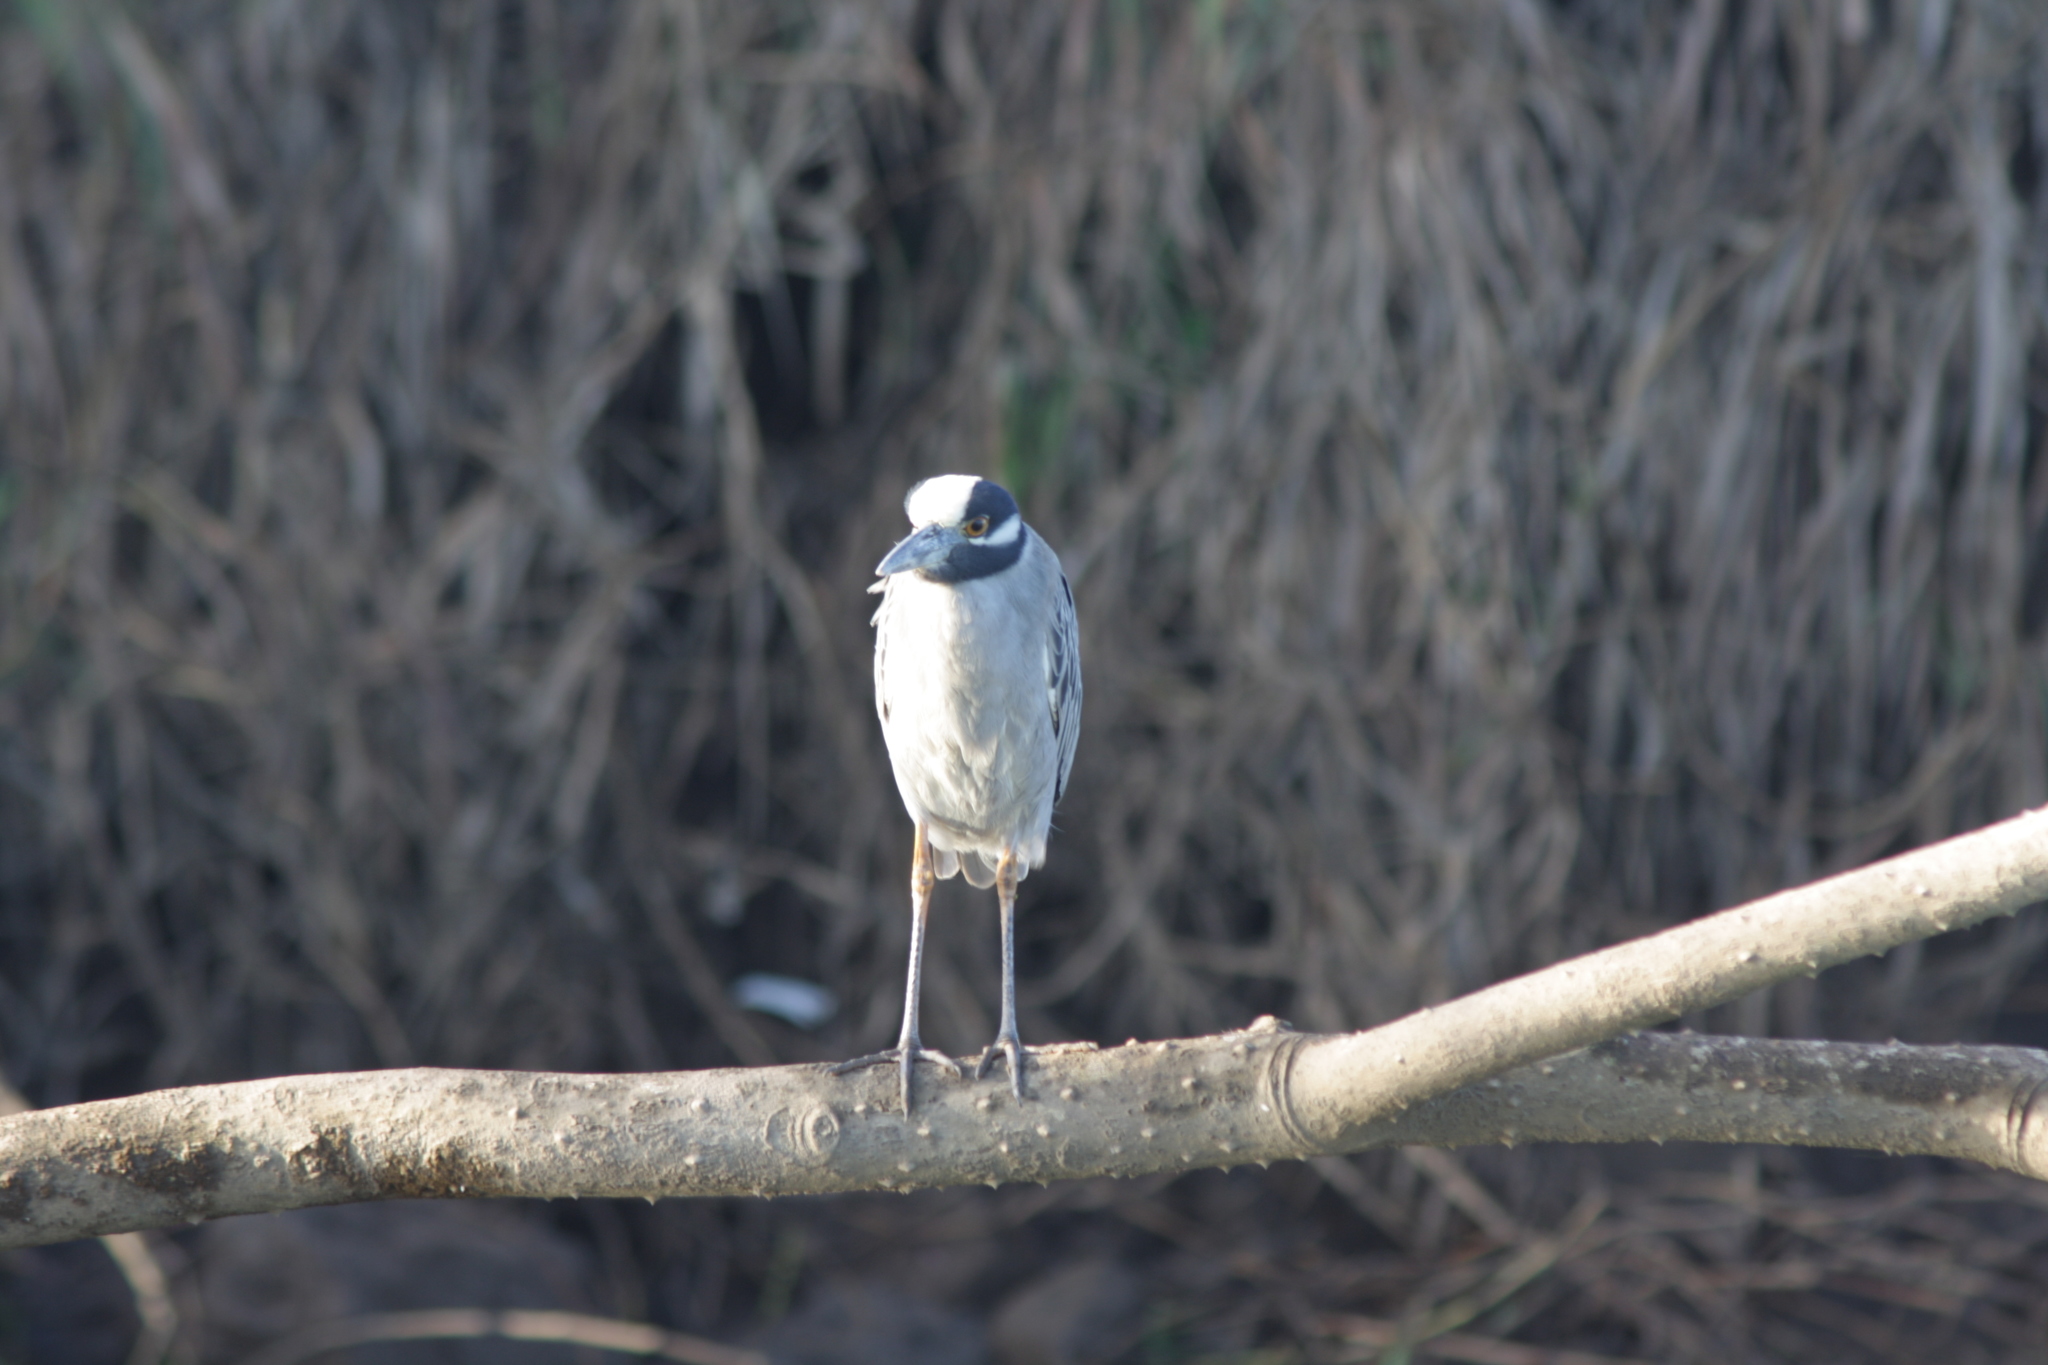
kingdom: Animalia
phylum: Chordata
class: Aves
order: Pelecaniformes
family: Ardeidae
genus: Nyctanassa
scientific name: Nyctanassa violacea
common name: Yellow-crowned night heron
